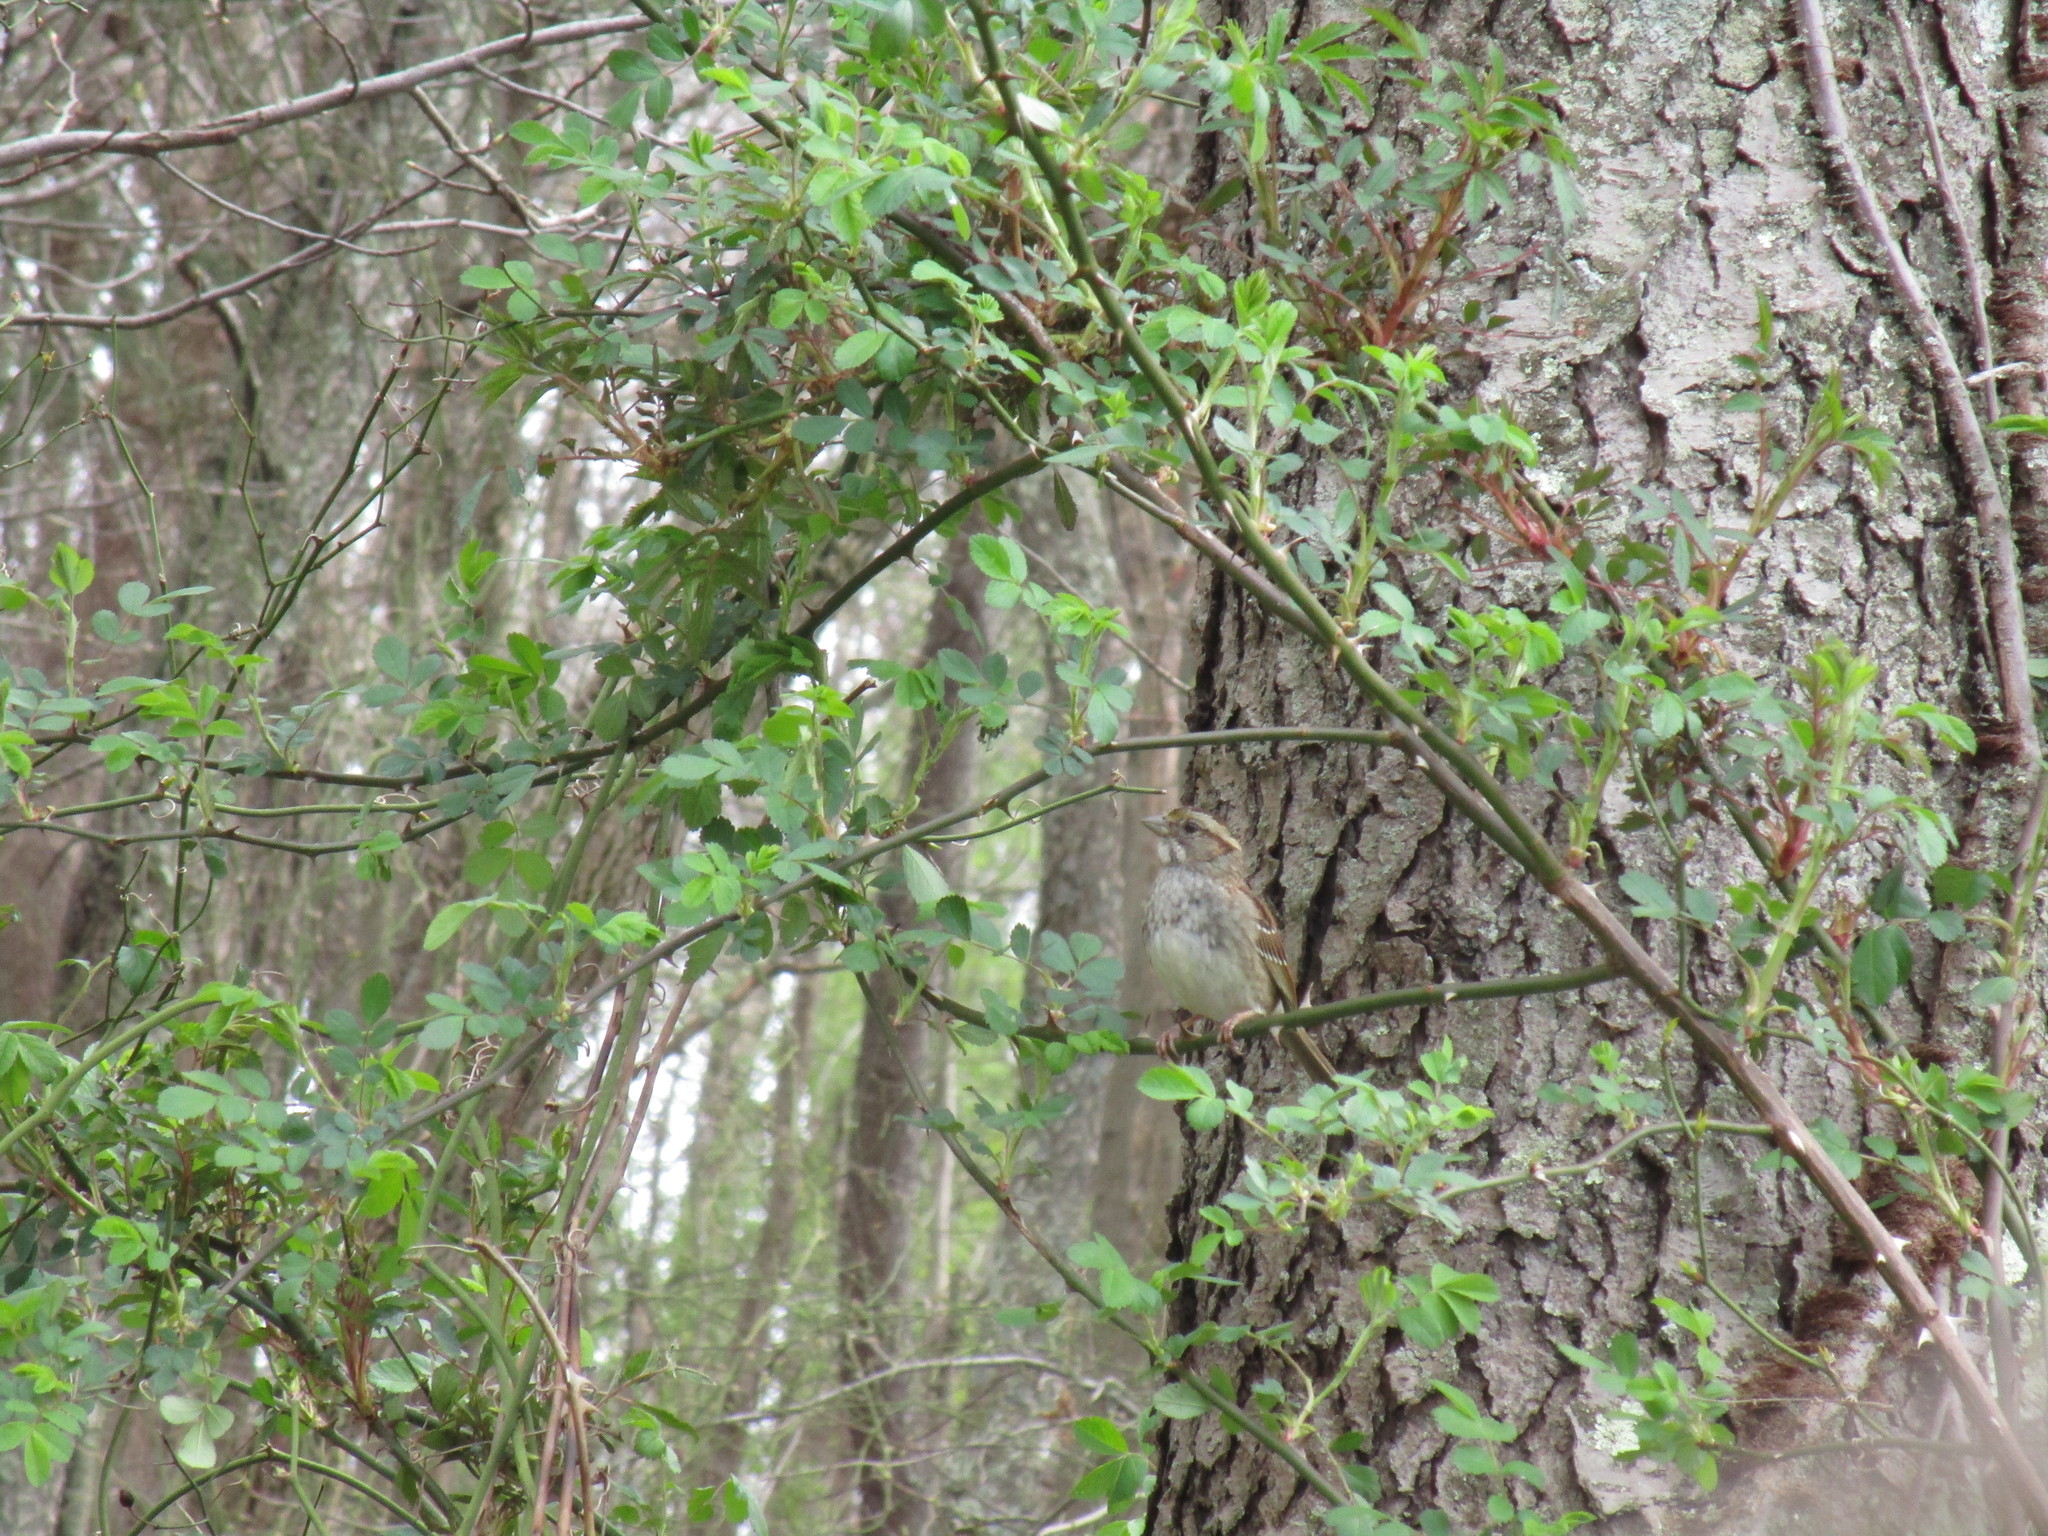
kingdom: Animalia
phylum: Chordata
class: Aves
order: Passeriformes
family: Passerellidae
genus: Zonotrichia
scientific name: Zonotrichia albicollis
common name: White-throated sparrow
